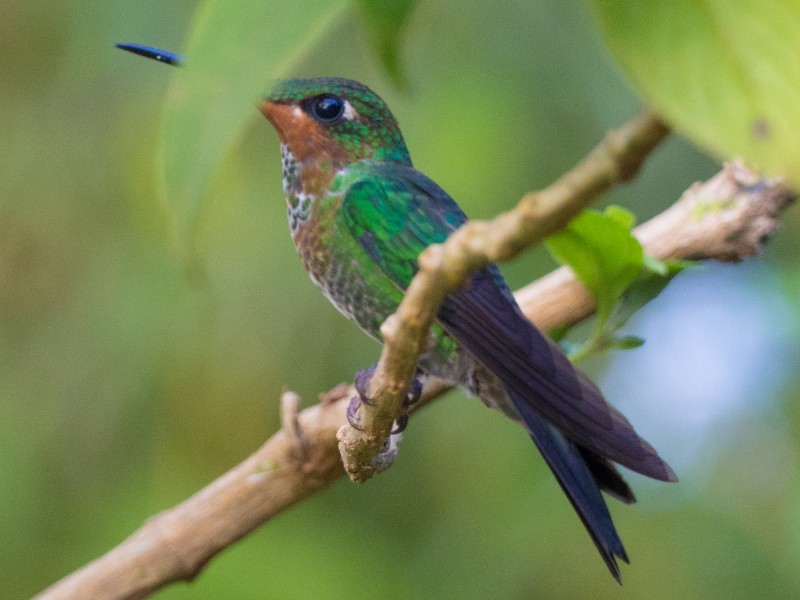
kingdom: Animalia
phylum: Chordata
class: Aves
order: Apodiformes
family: Trochilidae
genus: Heliodoxa
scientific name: Heliodoxa jacula
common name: Green-crowned brilliant
